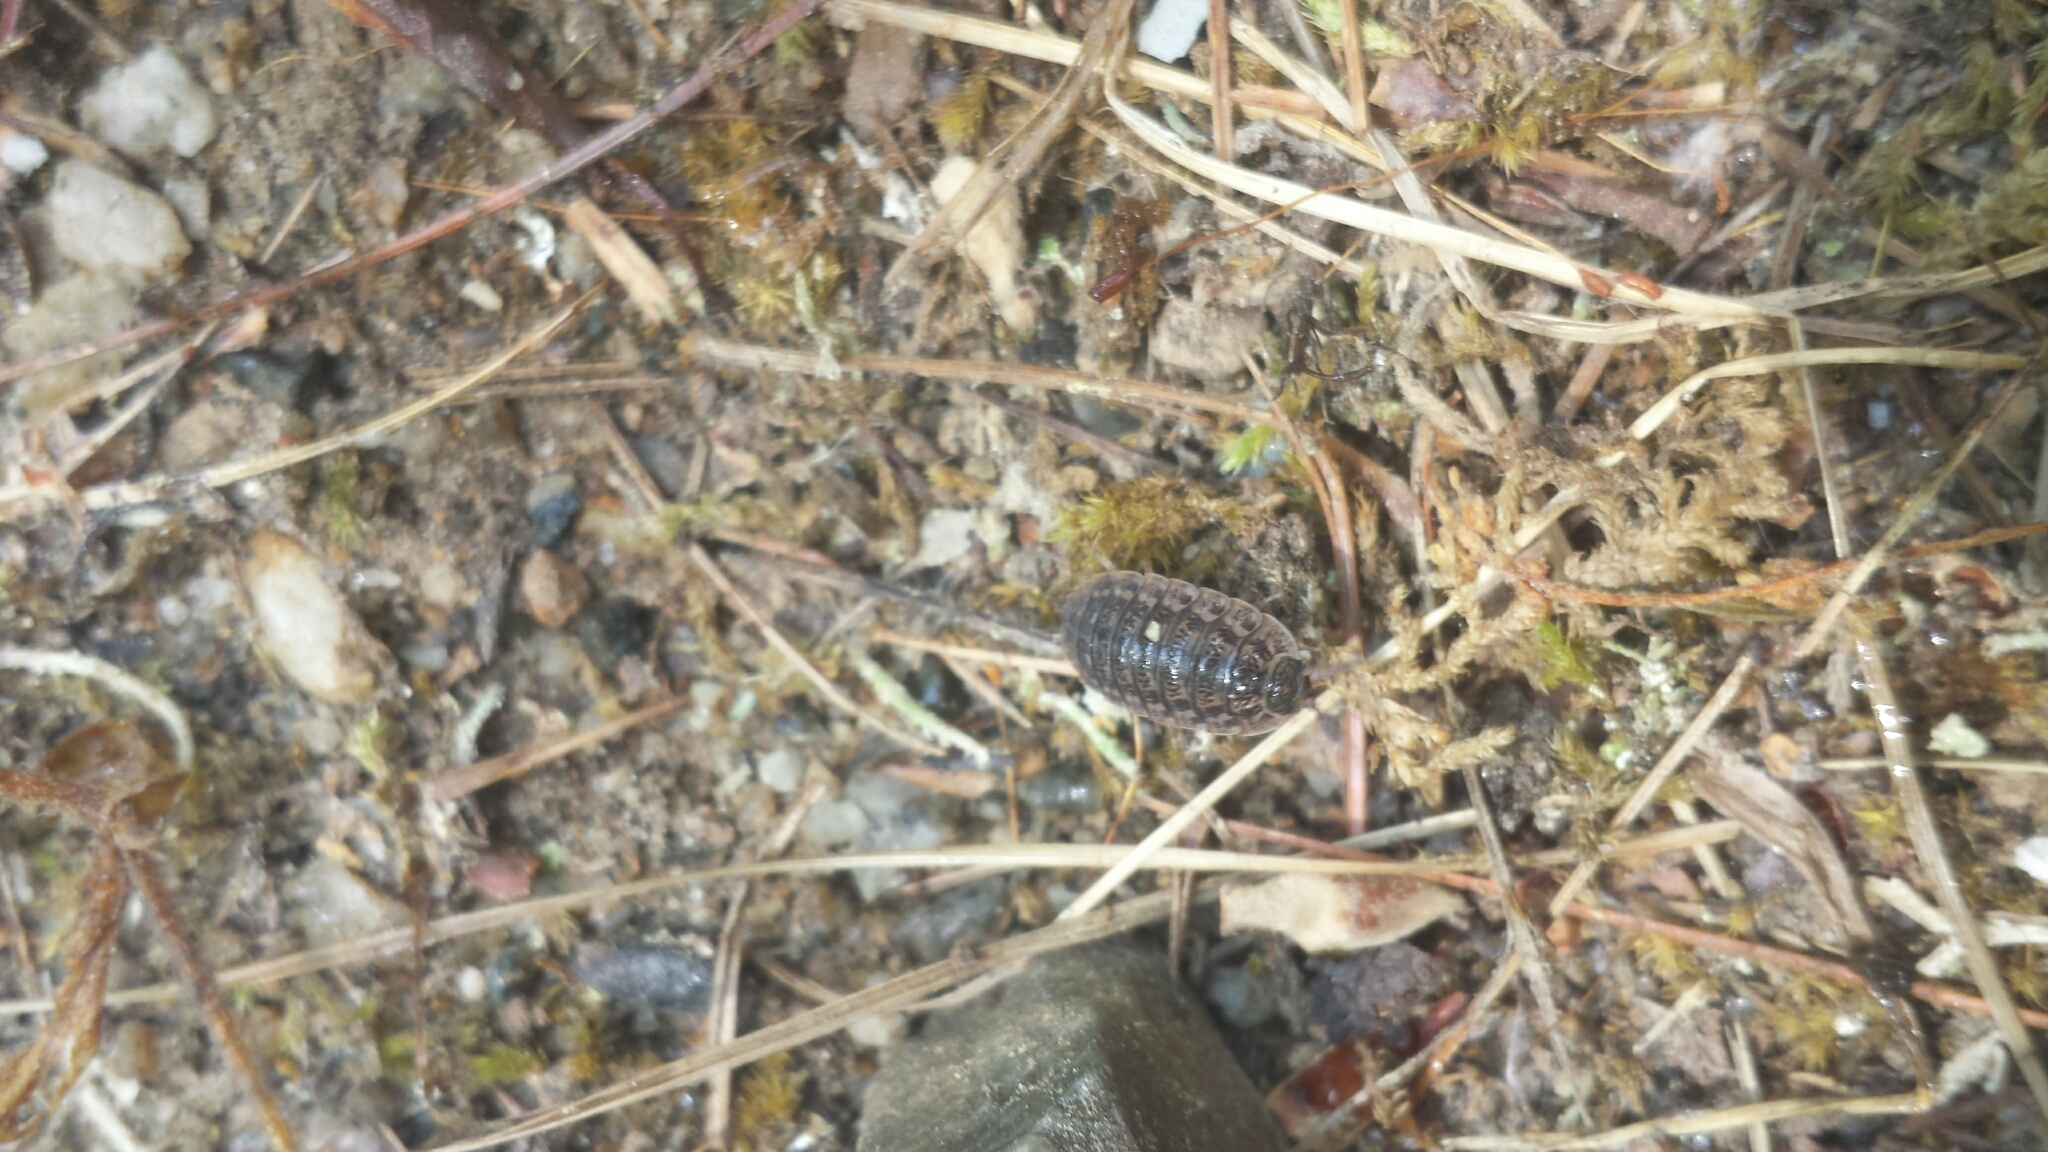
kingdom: Animalia
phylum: Arthropoda
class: Malacostraca
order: Isopoda
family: Trachelipodidae
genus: Trachelipus
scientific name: Trachelipus rathkii
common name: Isopod
